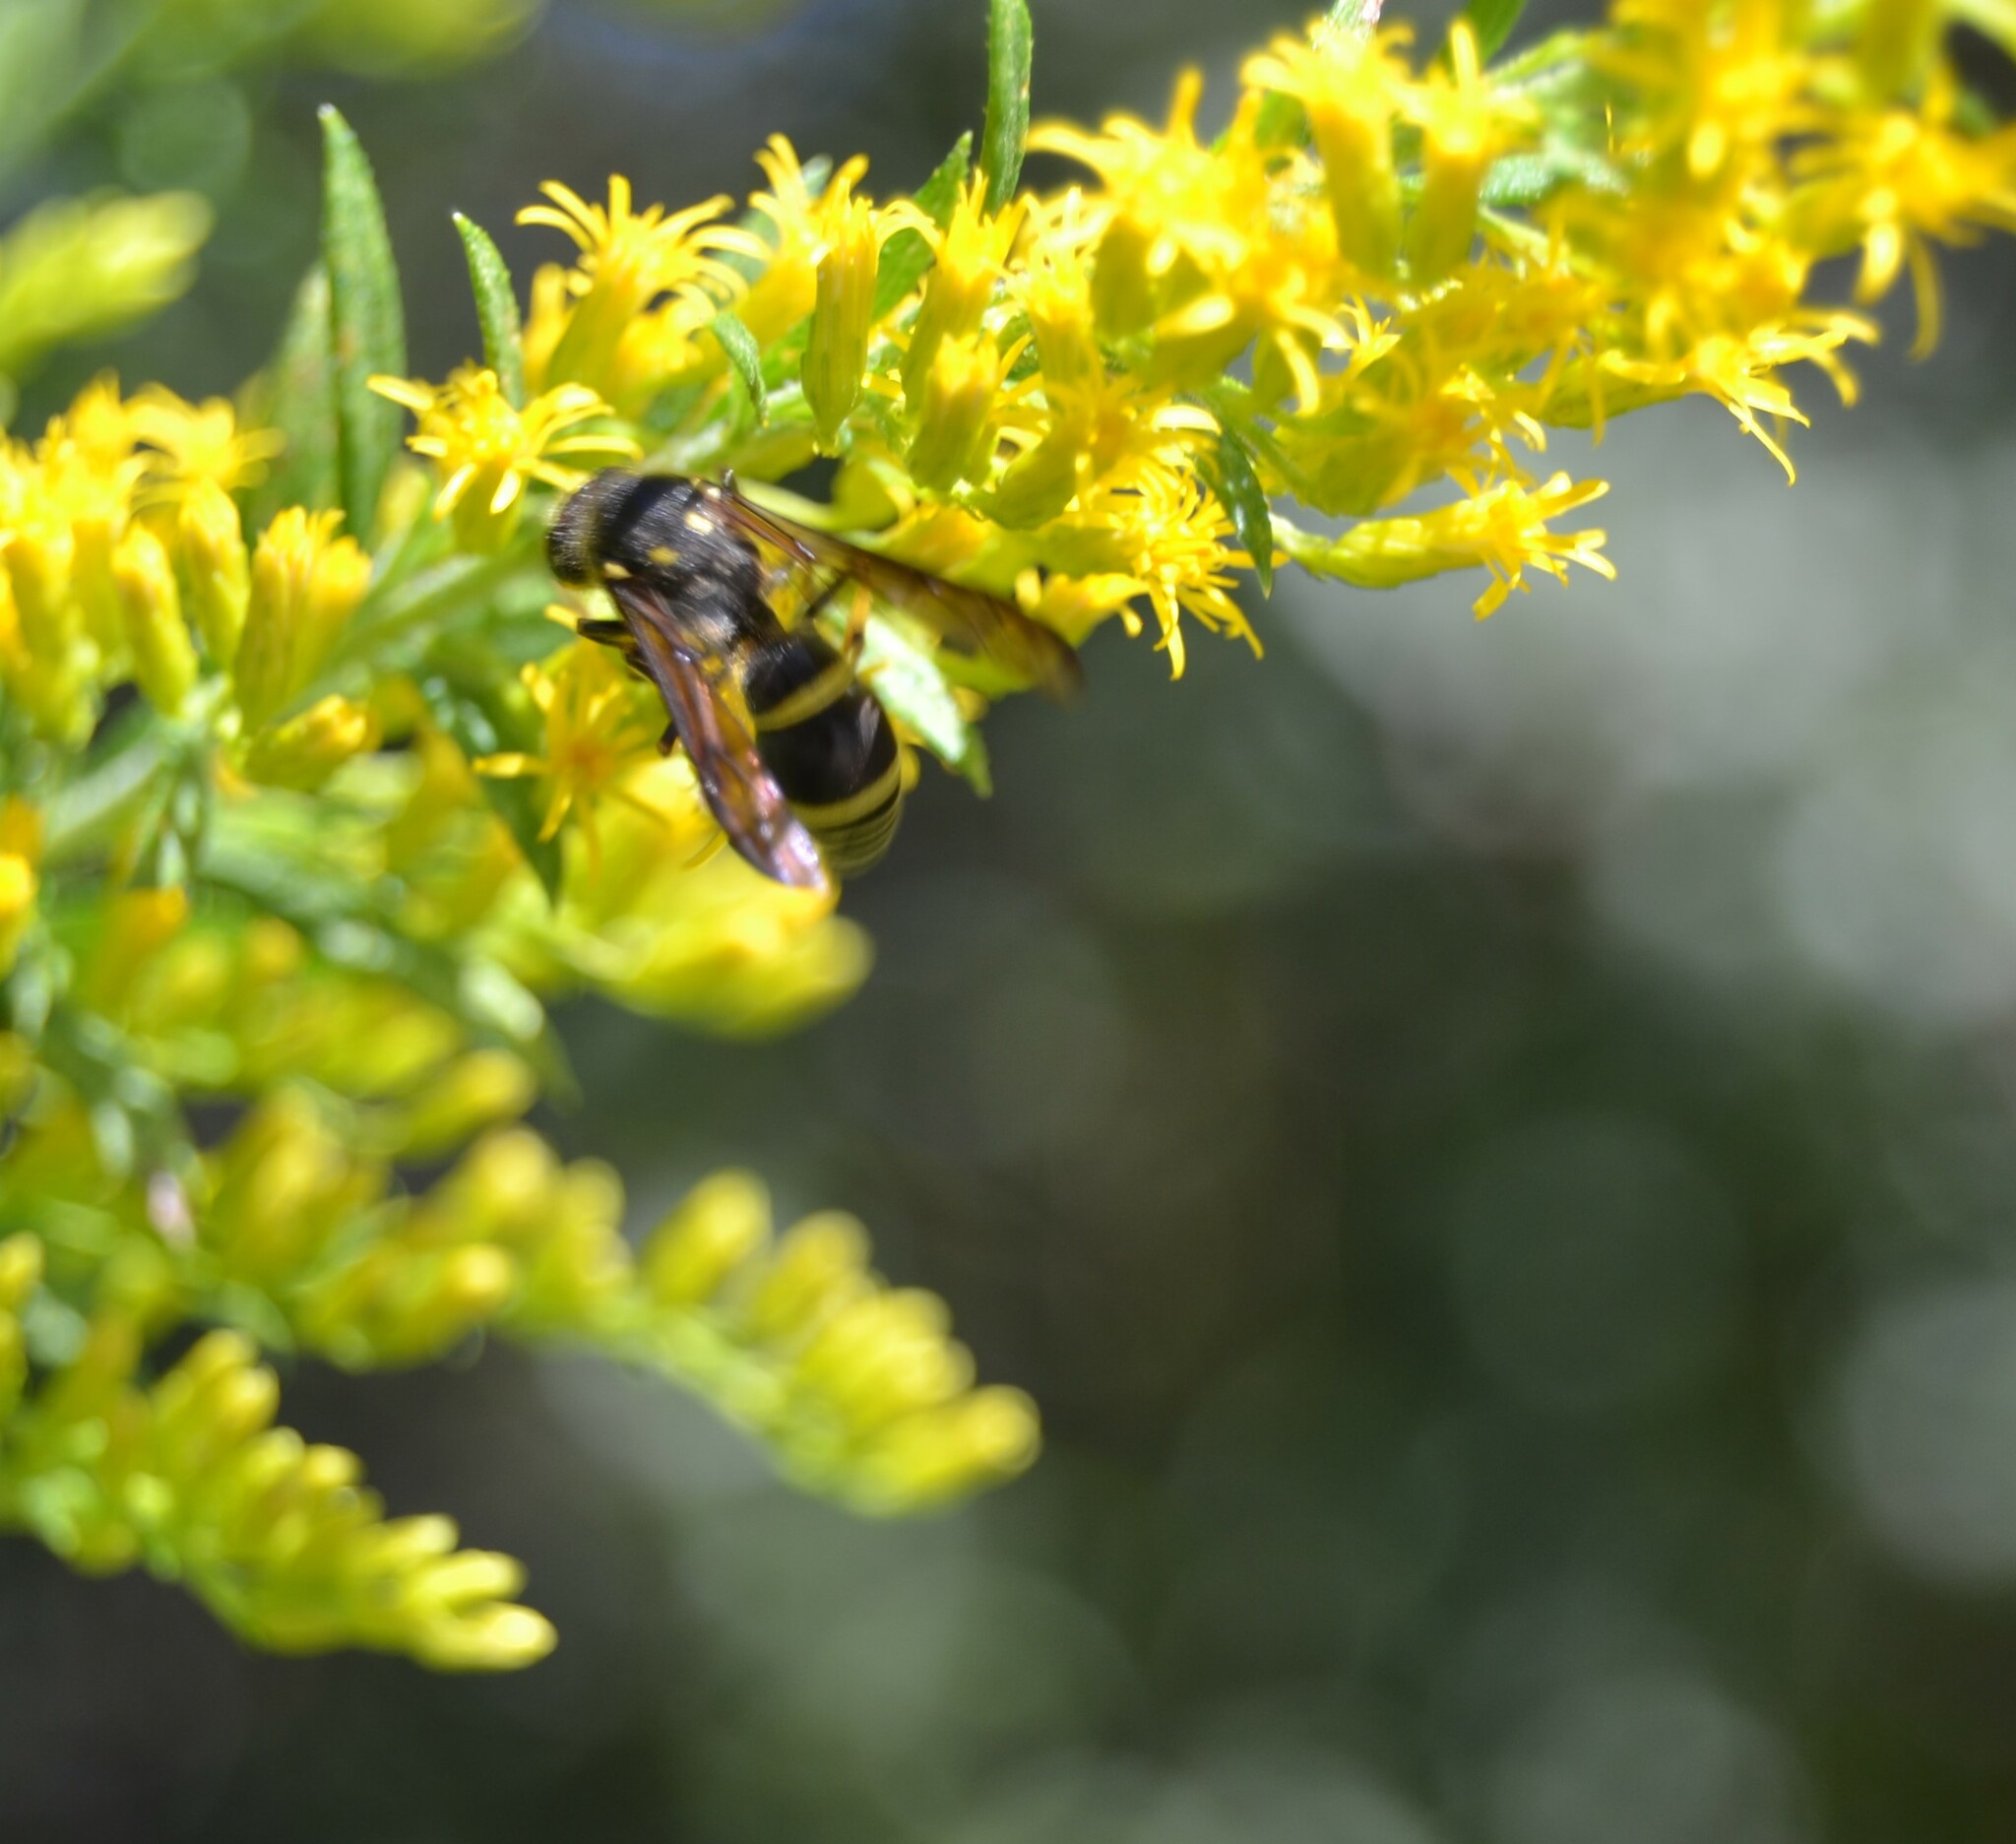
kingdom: Animalia
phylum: Arthropoda
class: Insecta
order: Hymenoptera
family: Vespidae
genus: Ancistrocerus
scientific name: Ancistrocerus
